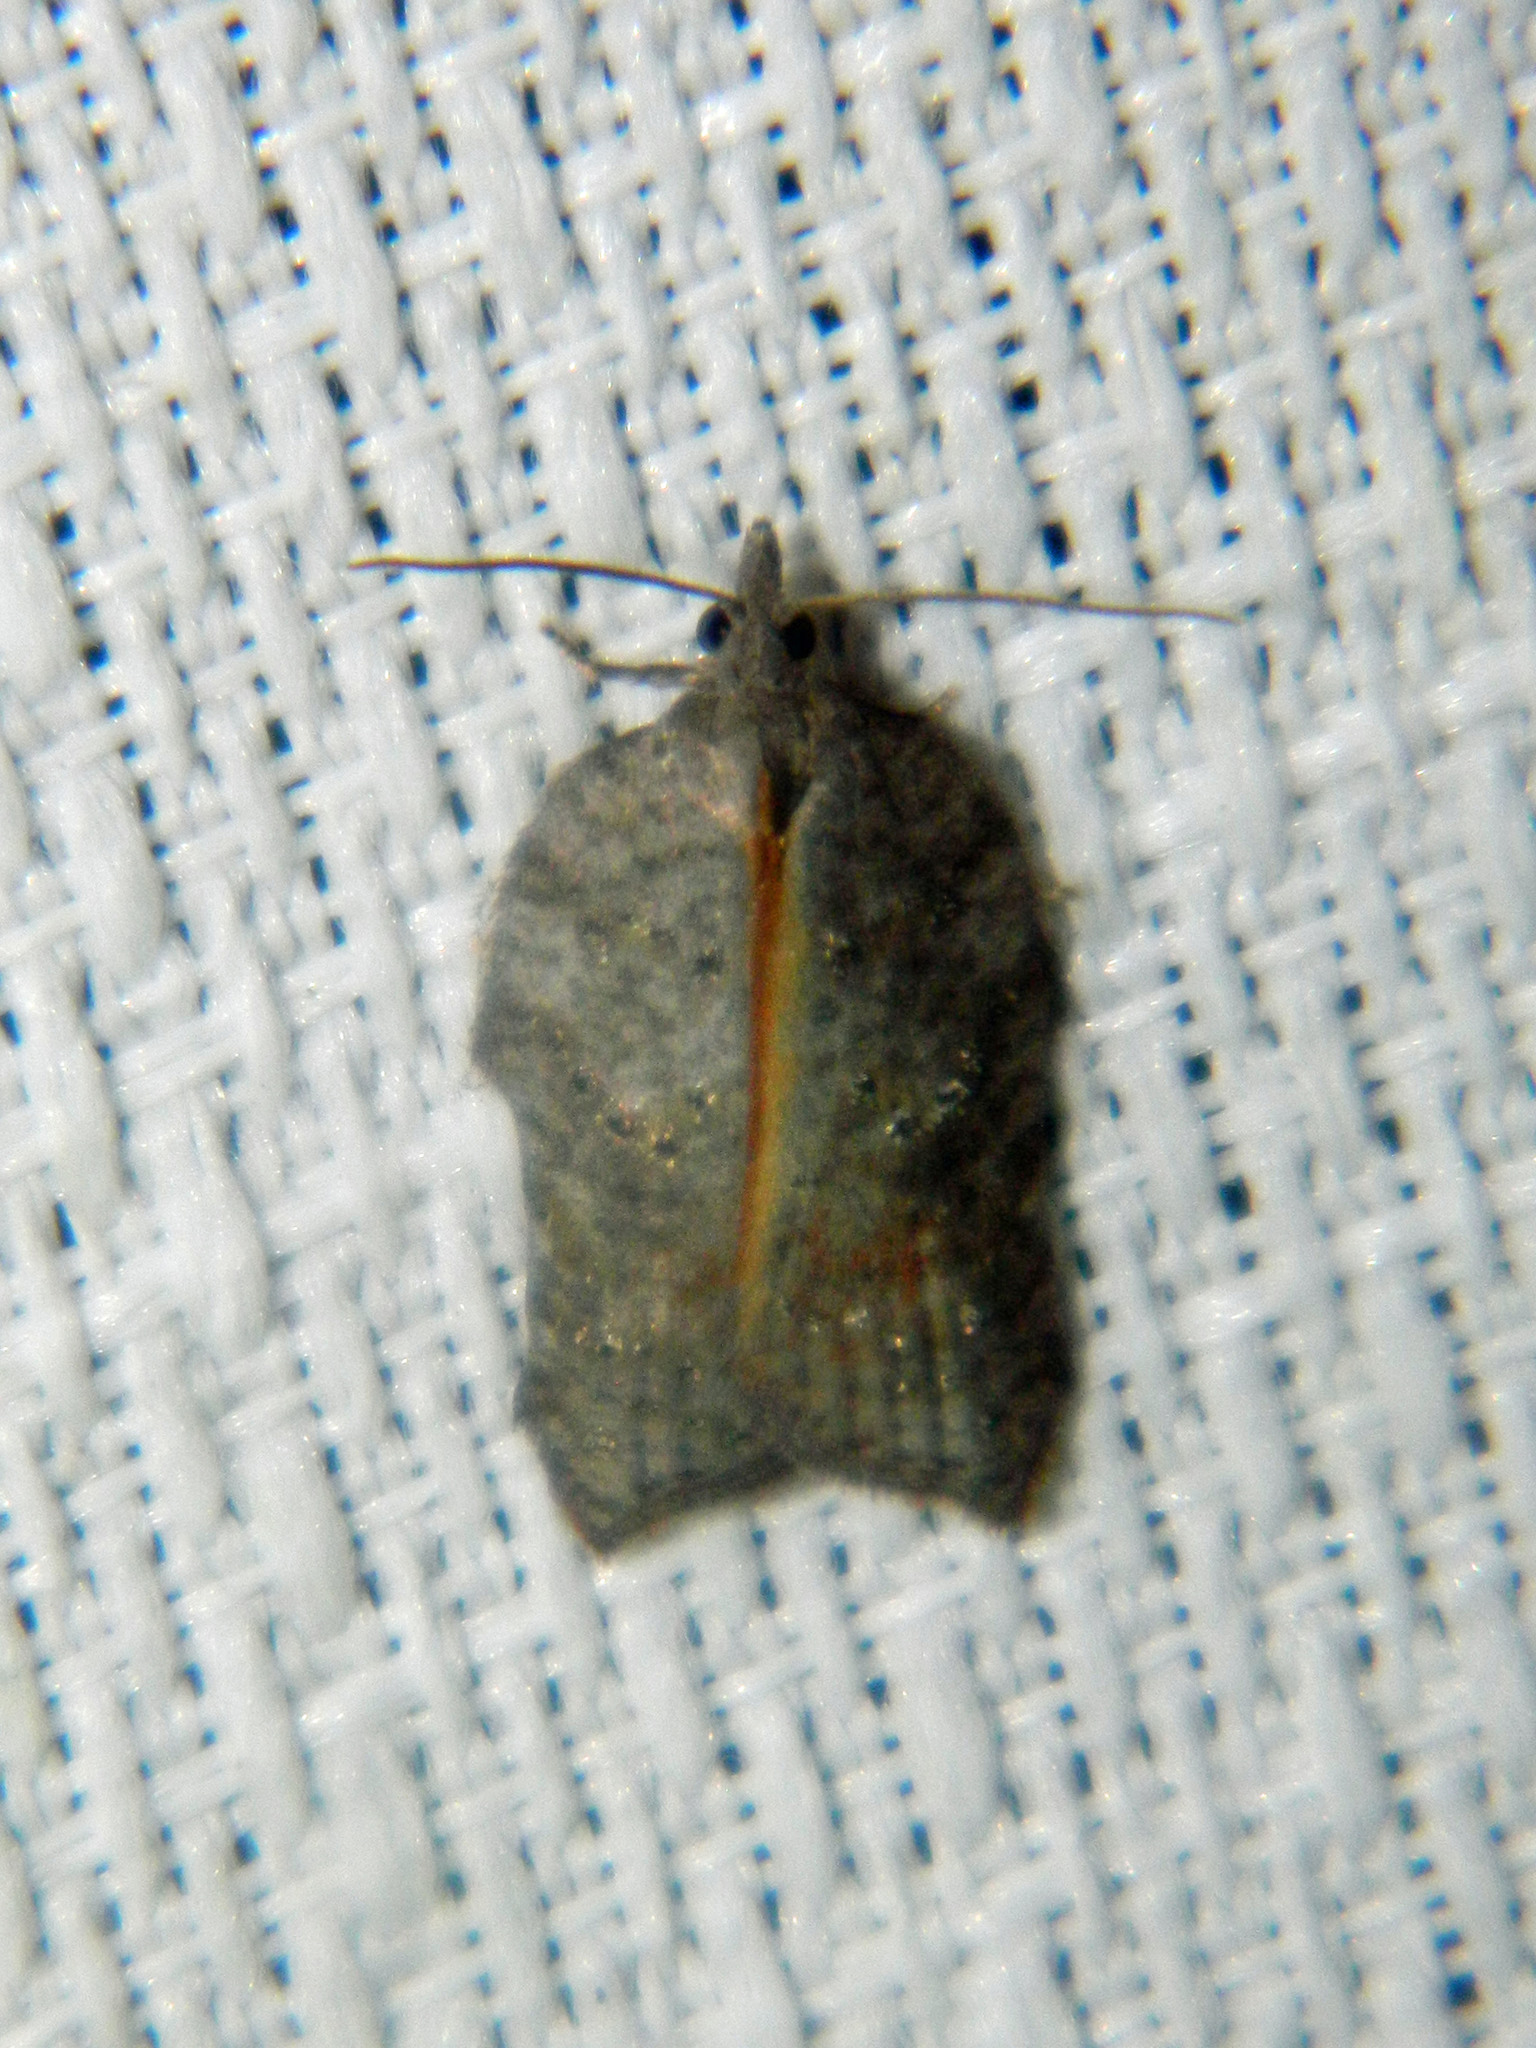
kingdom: Animalia
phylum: Arthropoda
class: Insecta
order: Lepidoptera
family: Tortricidae
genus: Acleris
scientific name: Acleris effractana
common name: Hook-winged tortrix moth
